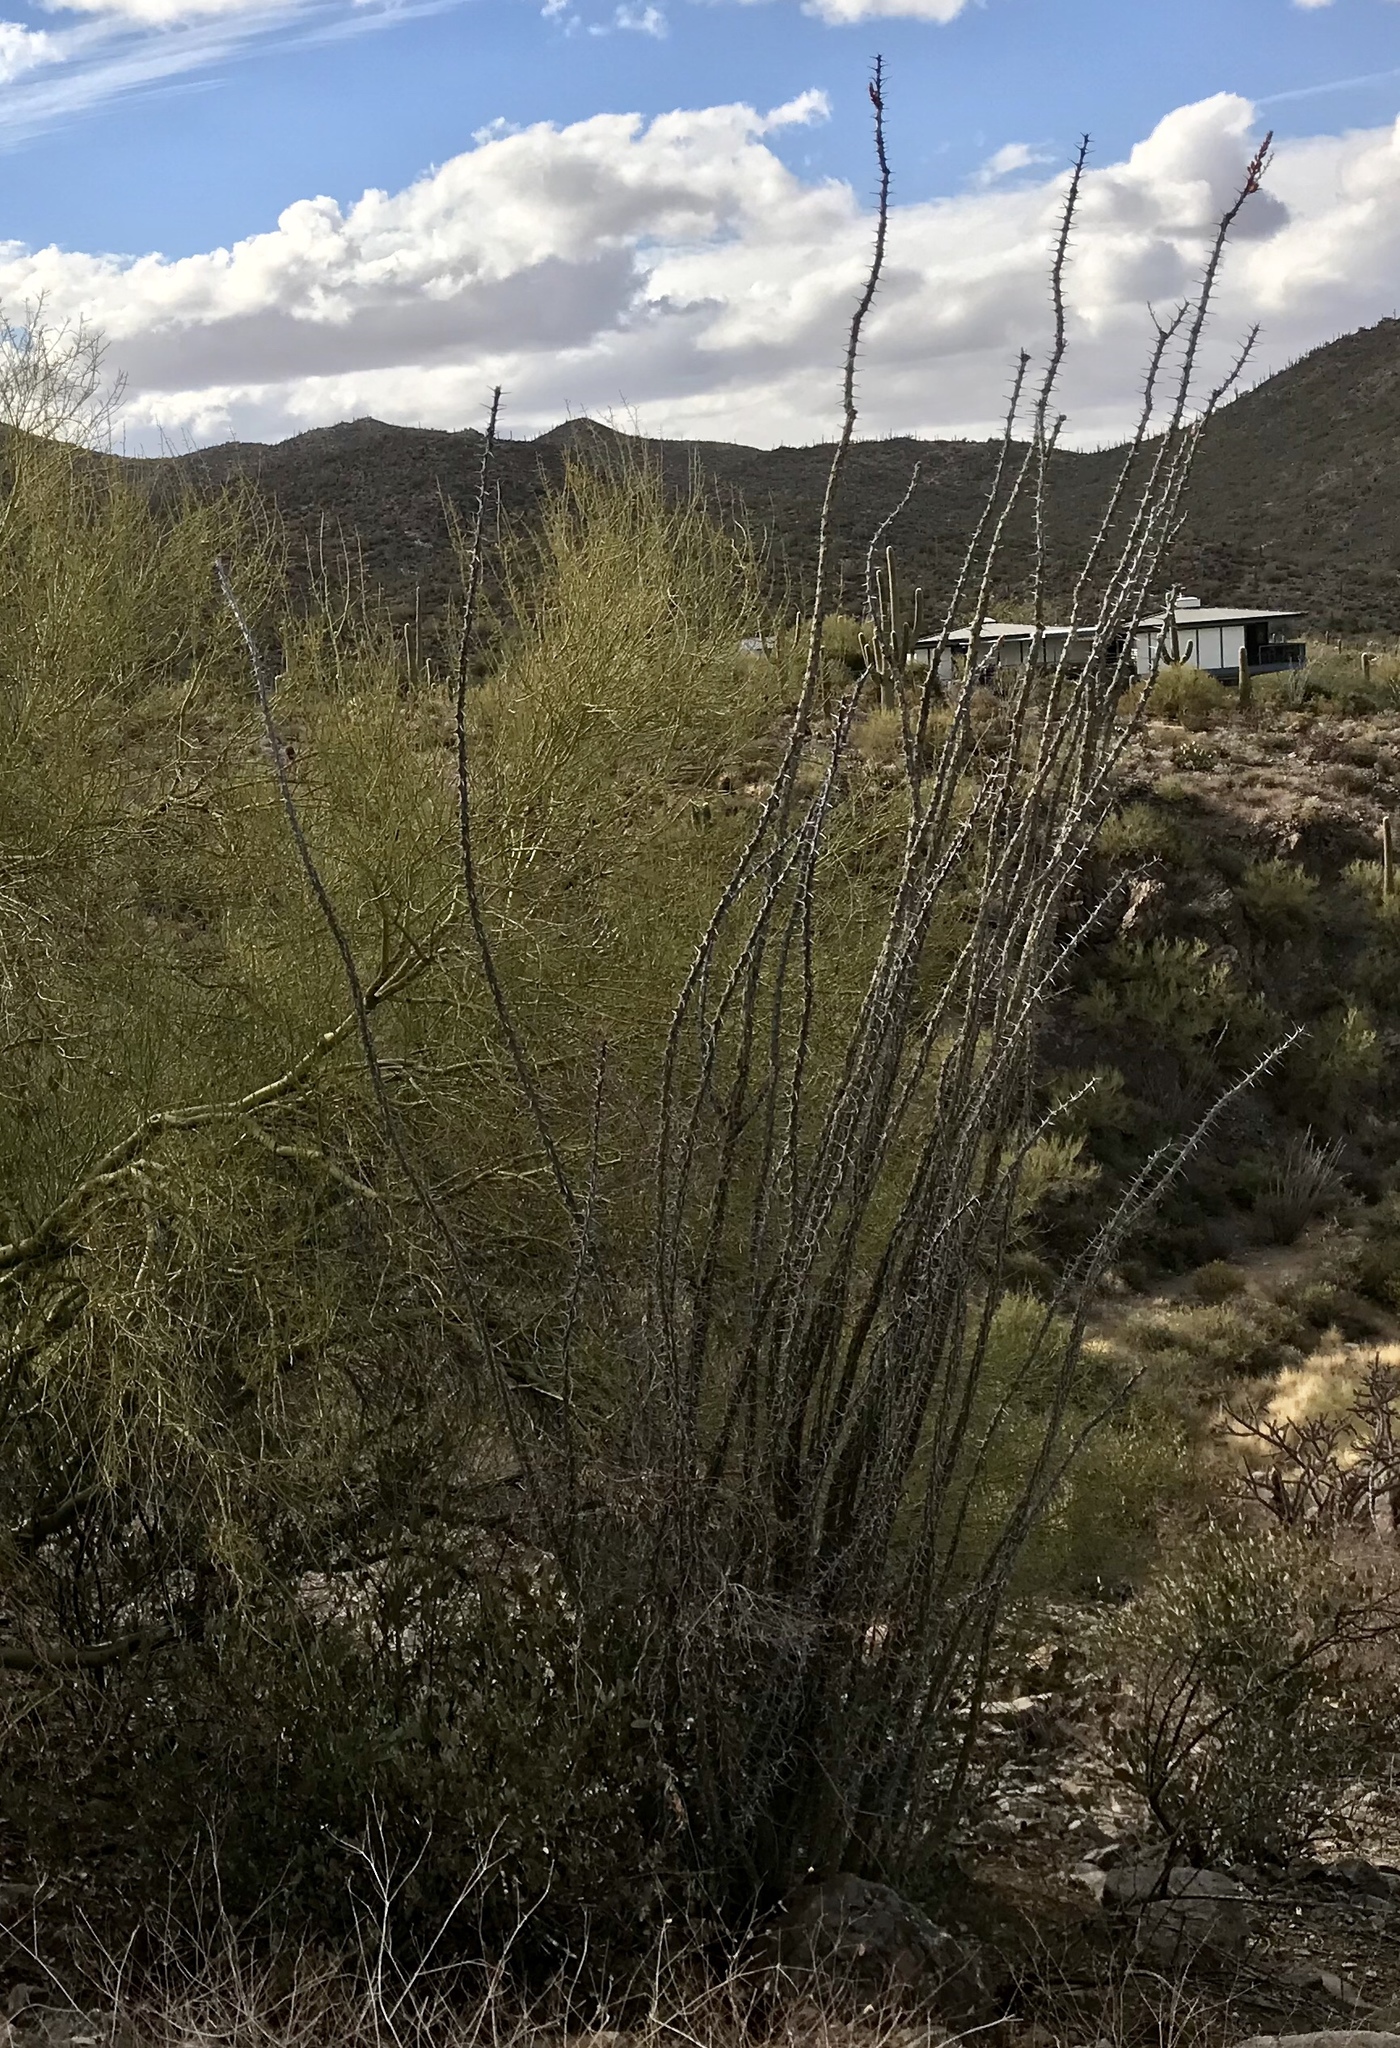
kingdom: Plantae
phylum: Tracheophyta
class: Magnoliopsida
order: Ericales
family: Fouquieriaceae
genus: Fouquieria
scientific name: Fouquieria splendens
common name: Vine-cactus
